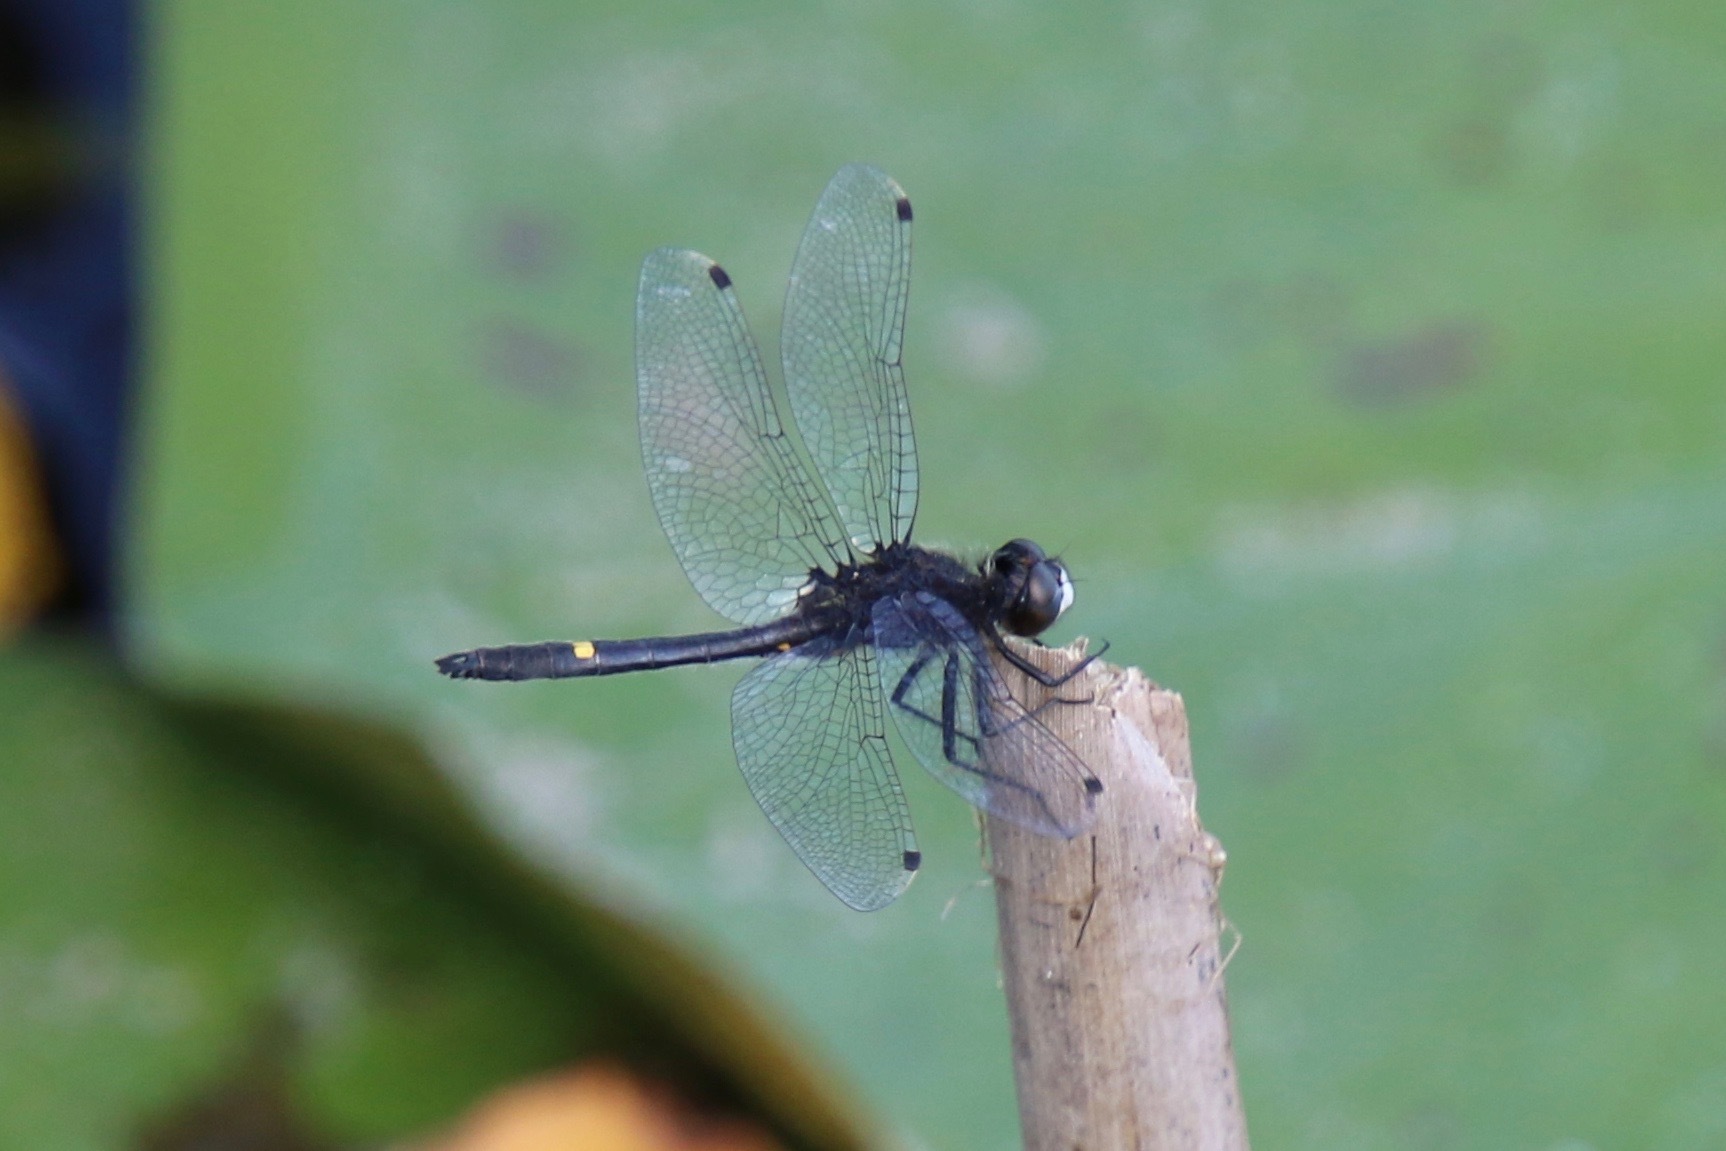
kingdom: Animalia
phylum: Arthropoda
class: Insecta
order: Odonata
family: Libellulidae
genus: Leucorrhinia
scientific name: Leucorrhinia intacta
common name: Dot-tailed whiteface
